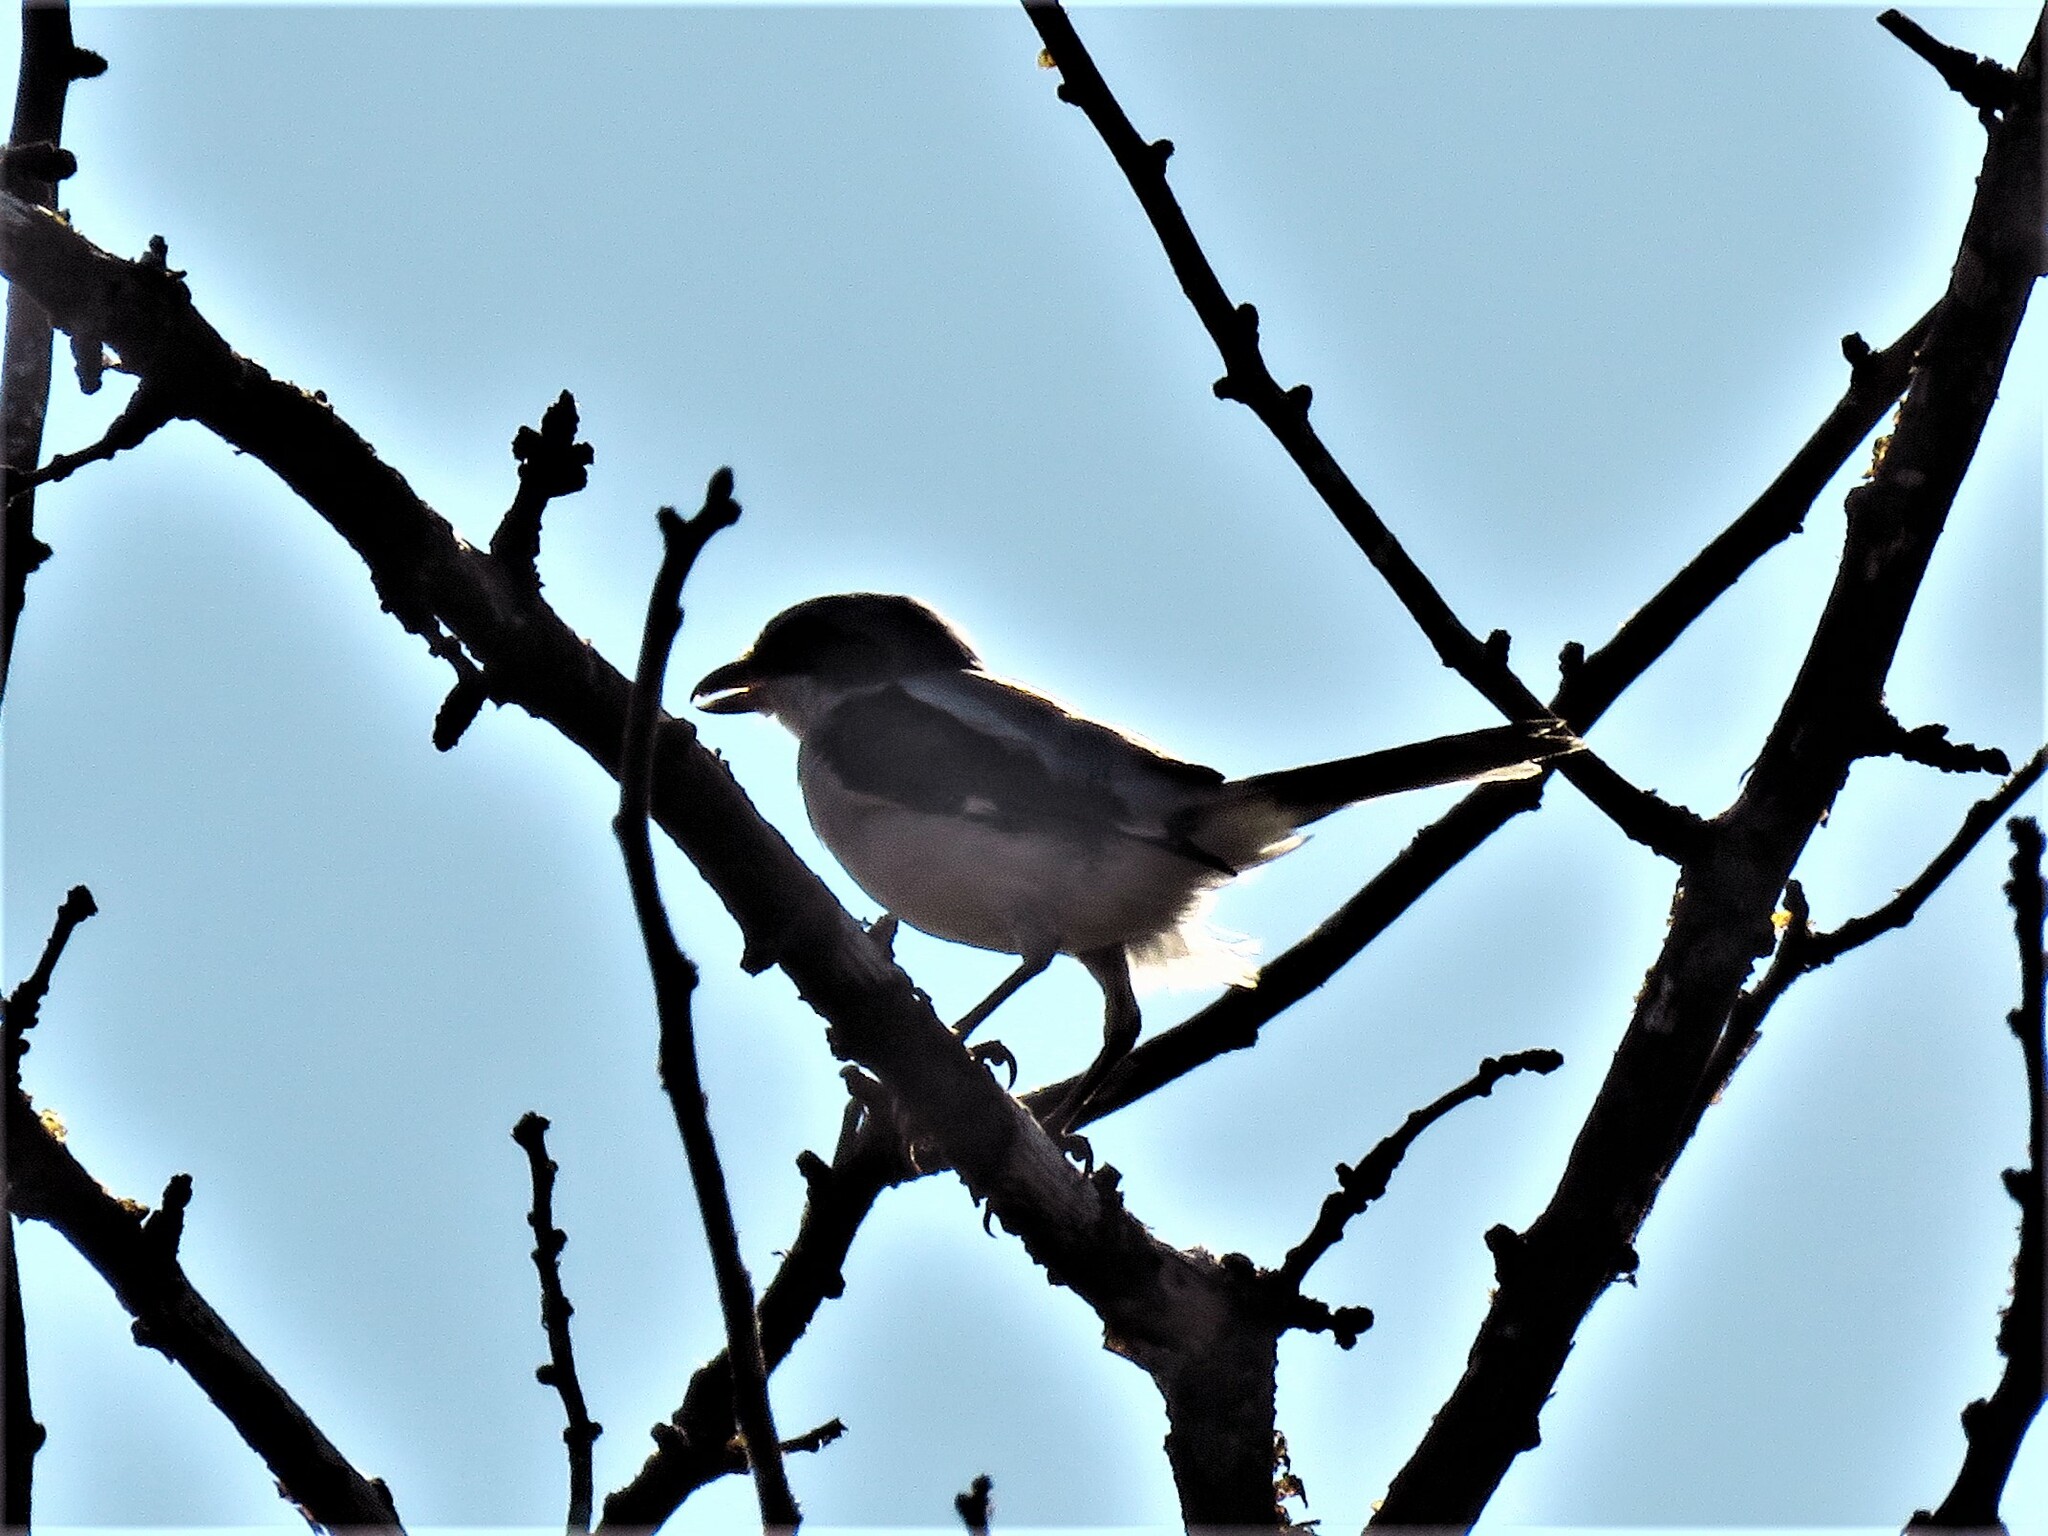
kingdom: Animalia
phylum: Chordata
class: Aves
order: Passeriformes
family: Laniidae
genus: Lanius
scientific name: Lanius ludovicianus
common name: Loggerhead shrike
